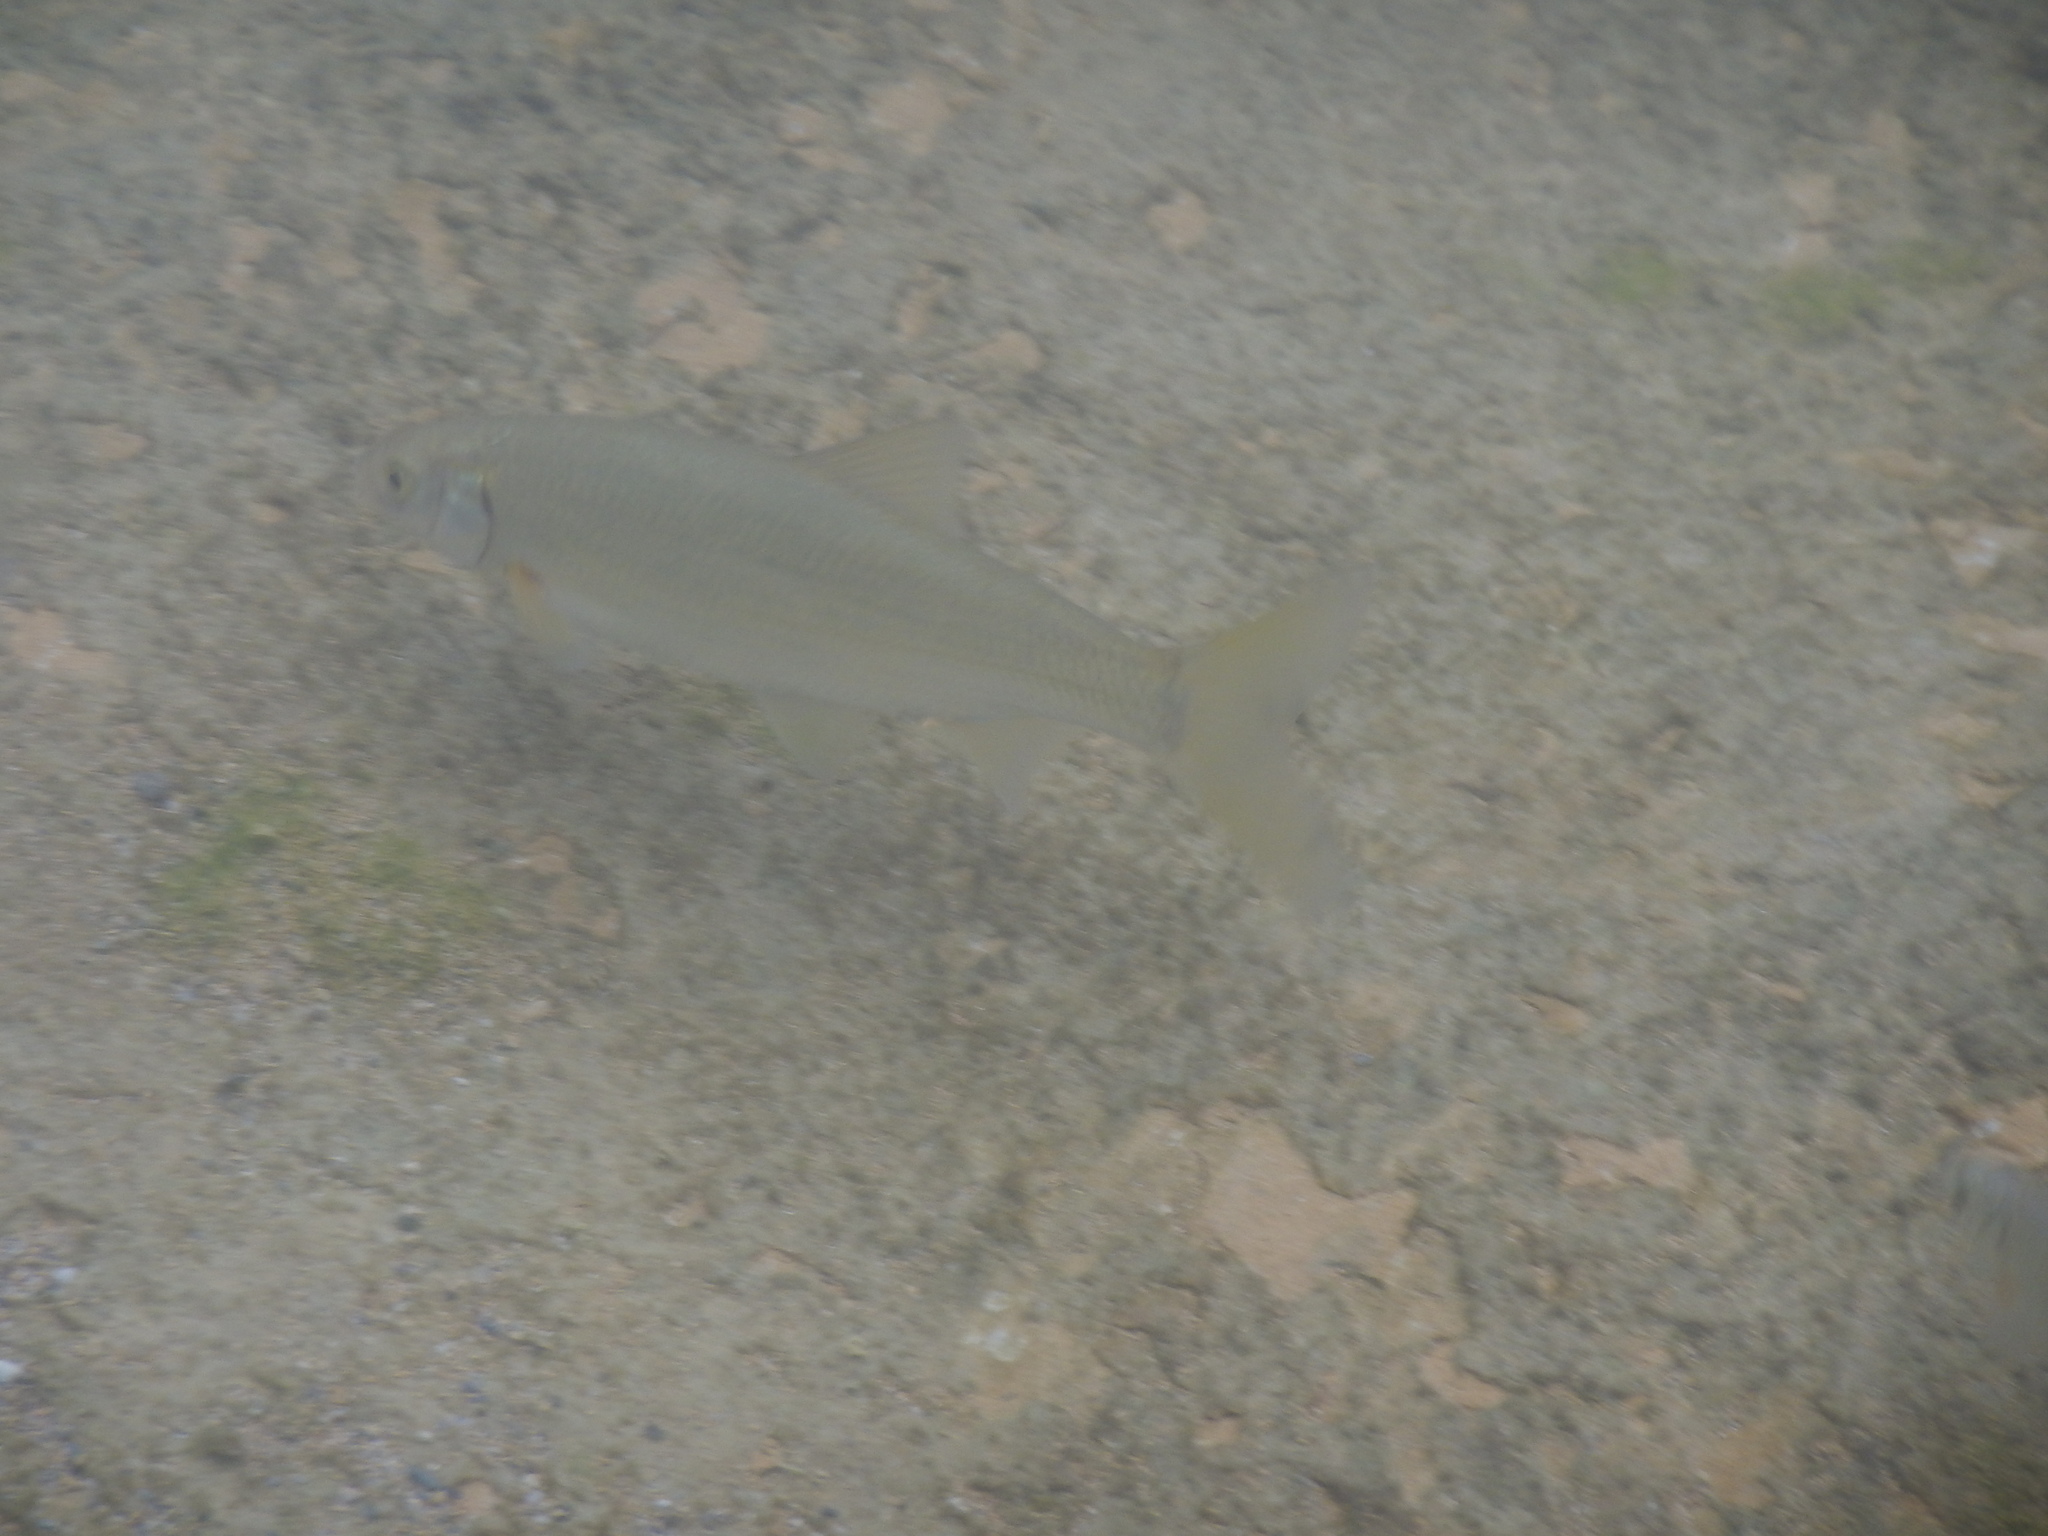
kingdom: Animalia
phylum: Chordata
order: Cypriniformes
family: Cyprinidae
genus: Telestes
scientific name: Telestes souffia
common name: Souffia
